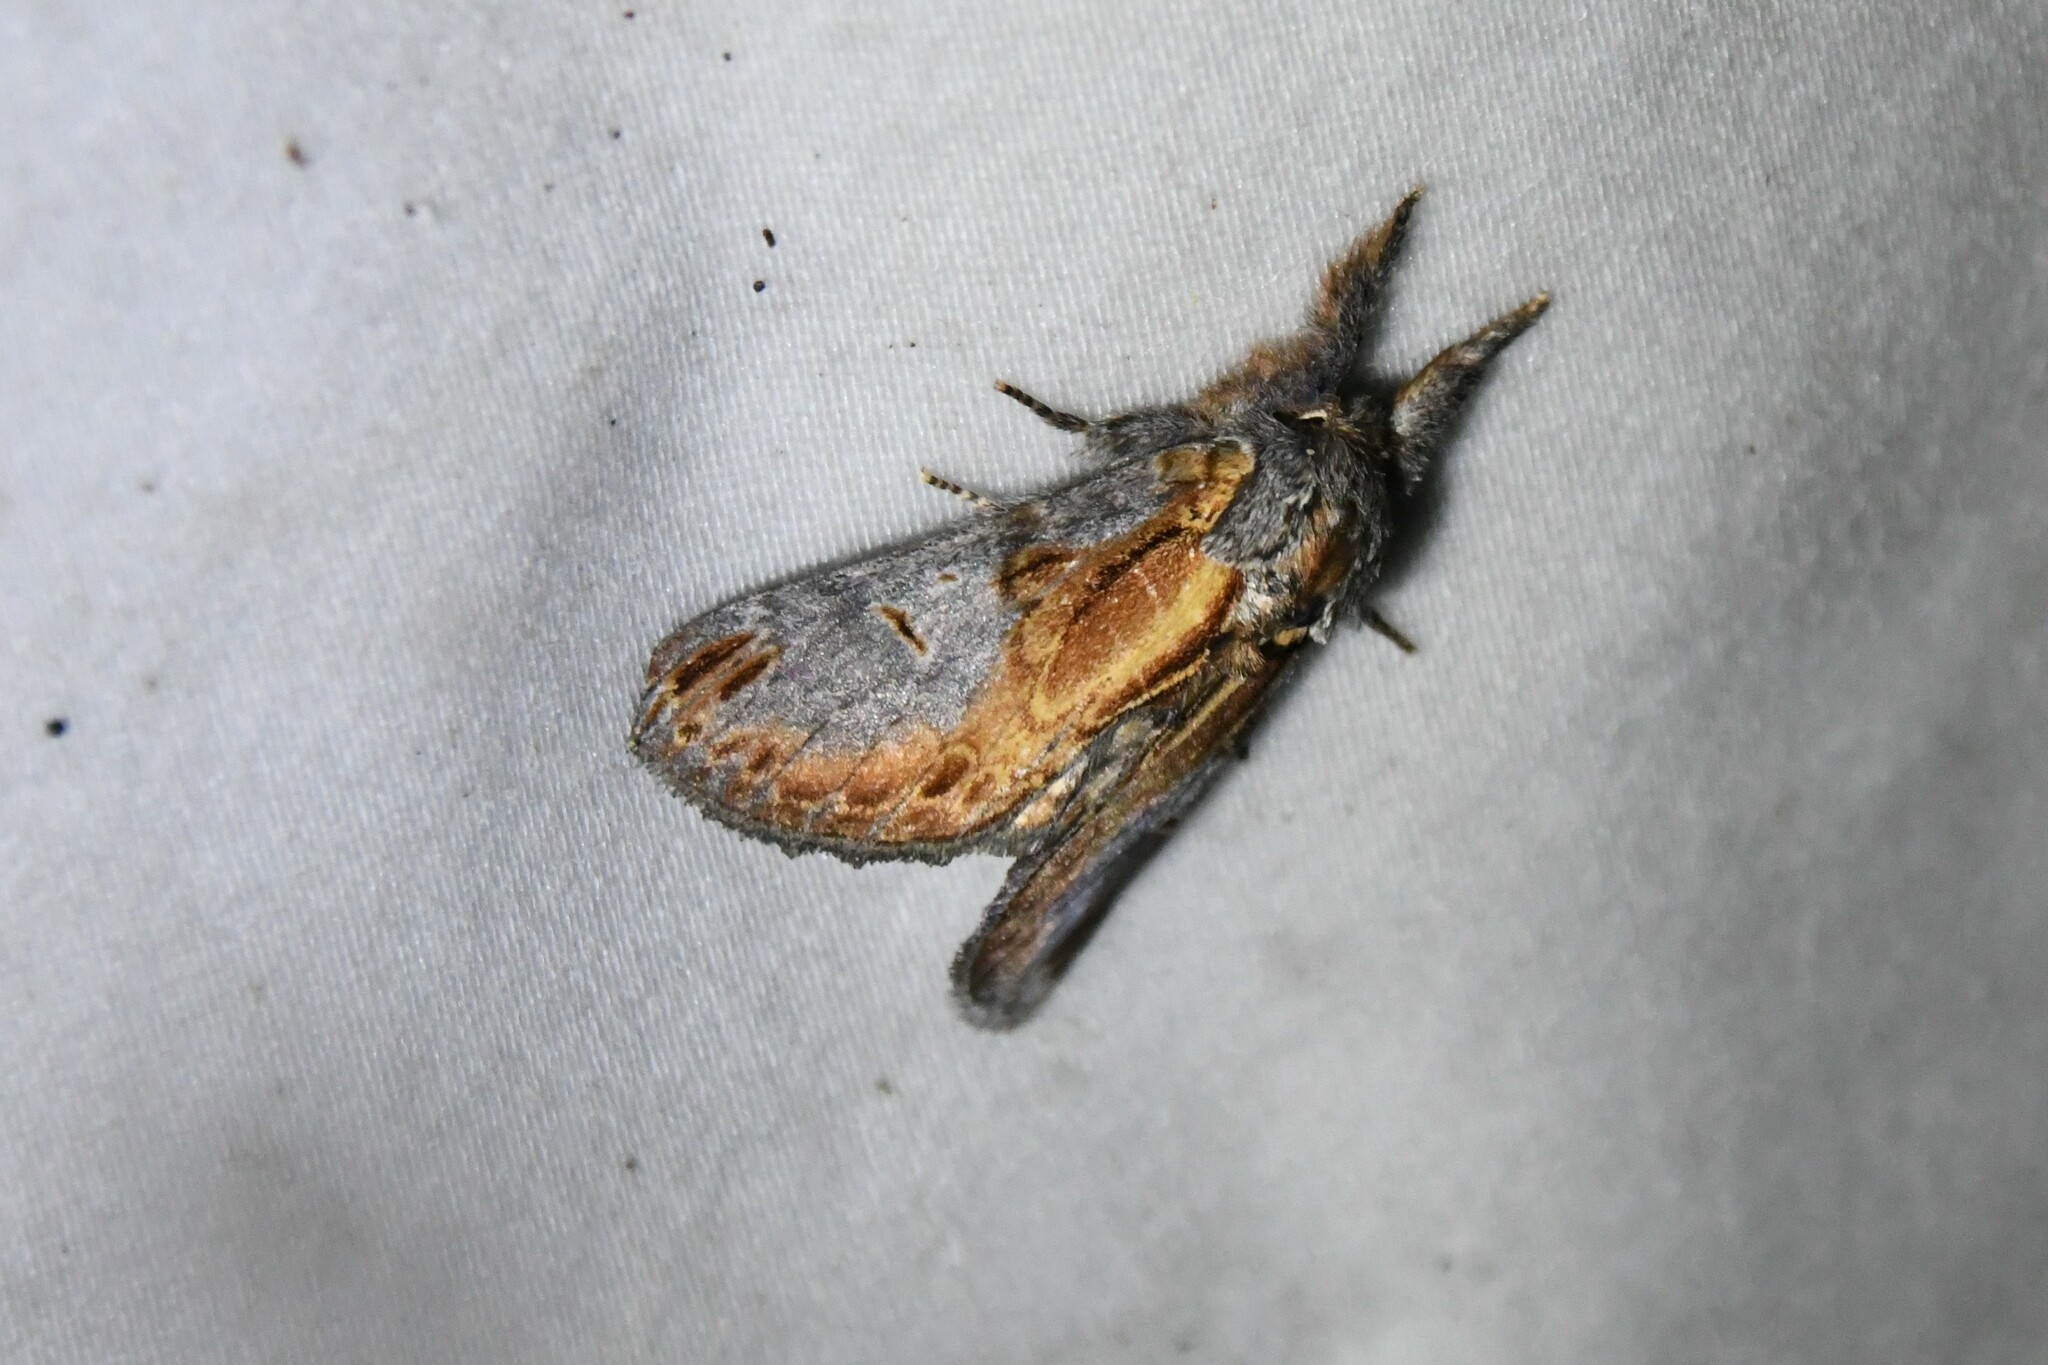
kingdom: Animalia
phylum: Arthropoda
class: Insecta
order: Lepidoptera
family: Notodontidae
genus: Notodonta
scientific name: Notodonta scitipennis
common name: Finned-willow prominent moth
